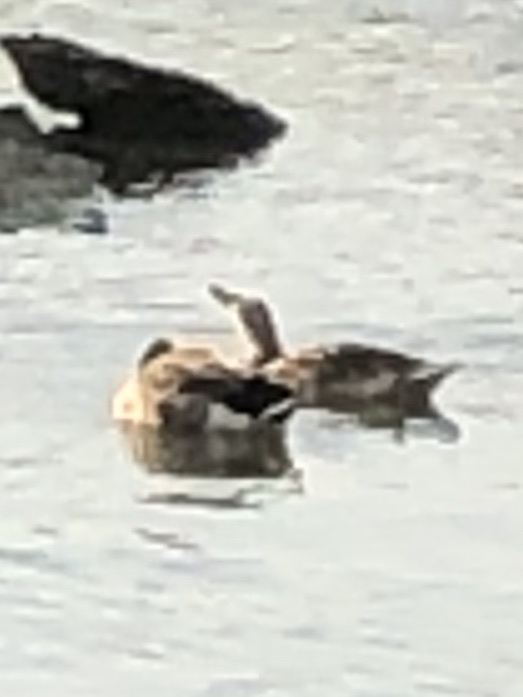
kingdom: Animalia
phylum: Chordata
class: Aves
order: Anseriformes
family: Anatidae
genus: Anas
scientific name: Anas platyrhynchos
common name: Mallard
